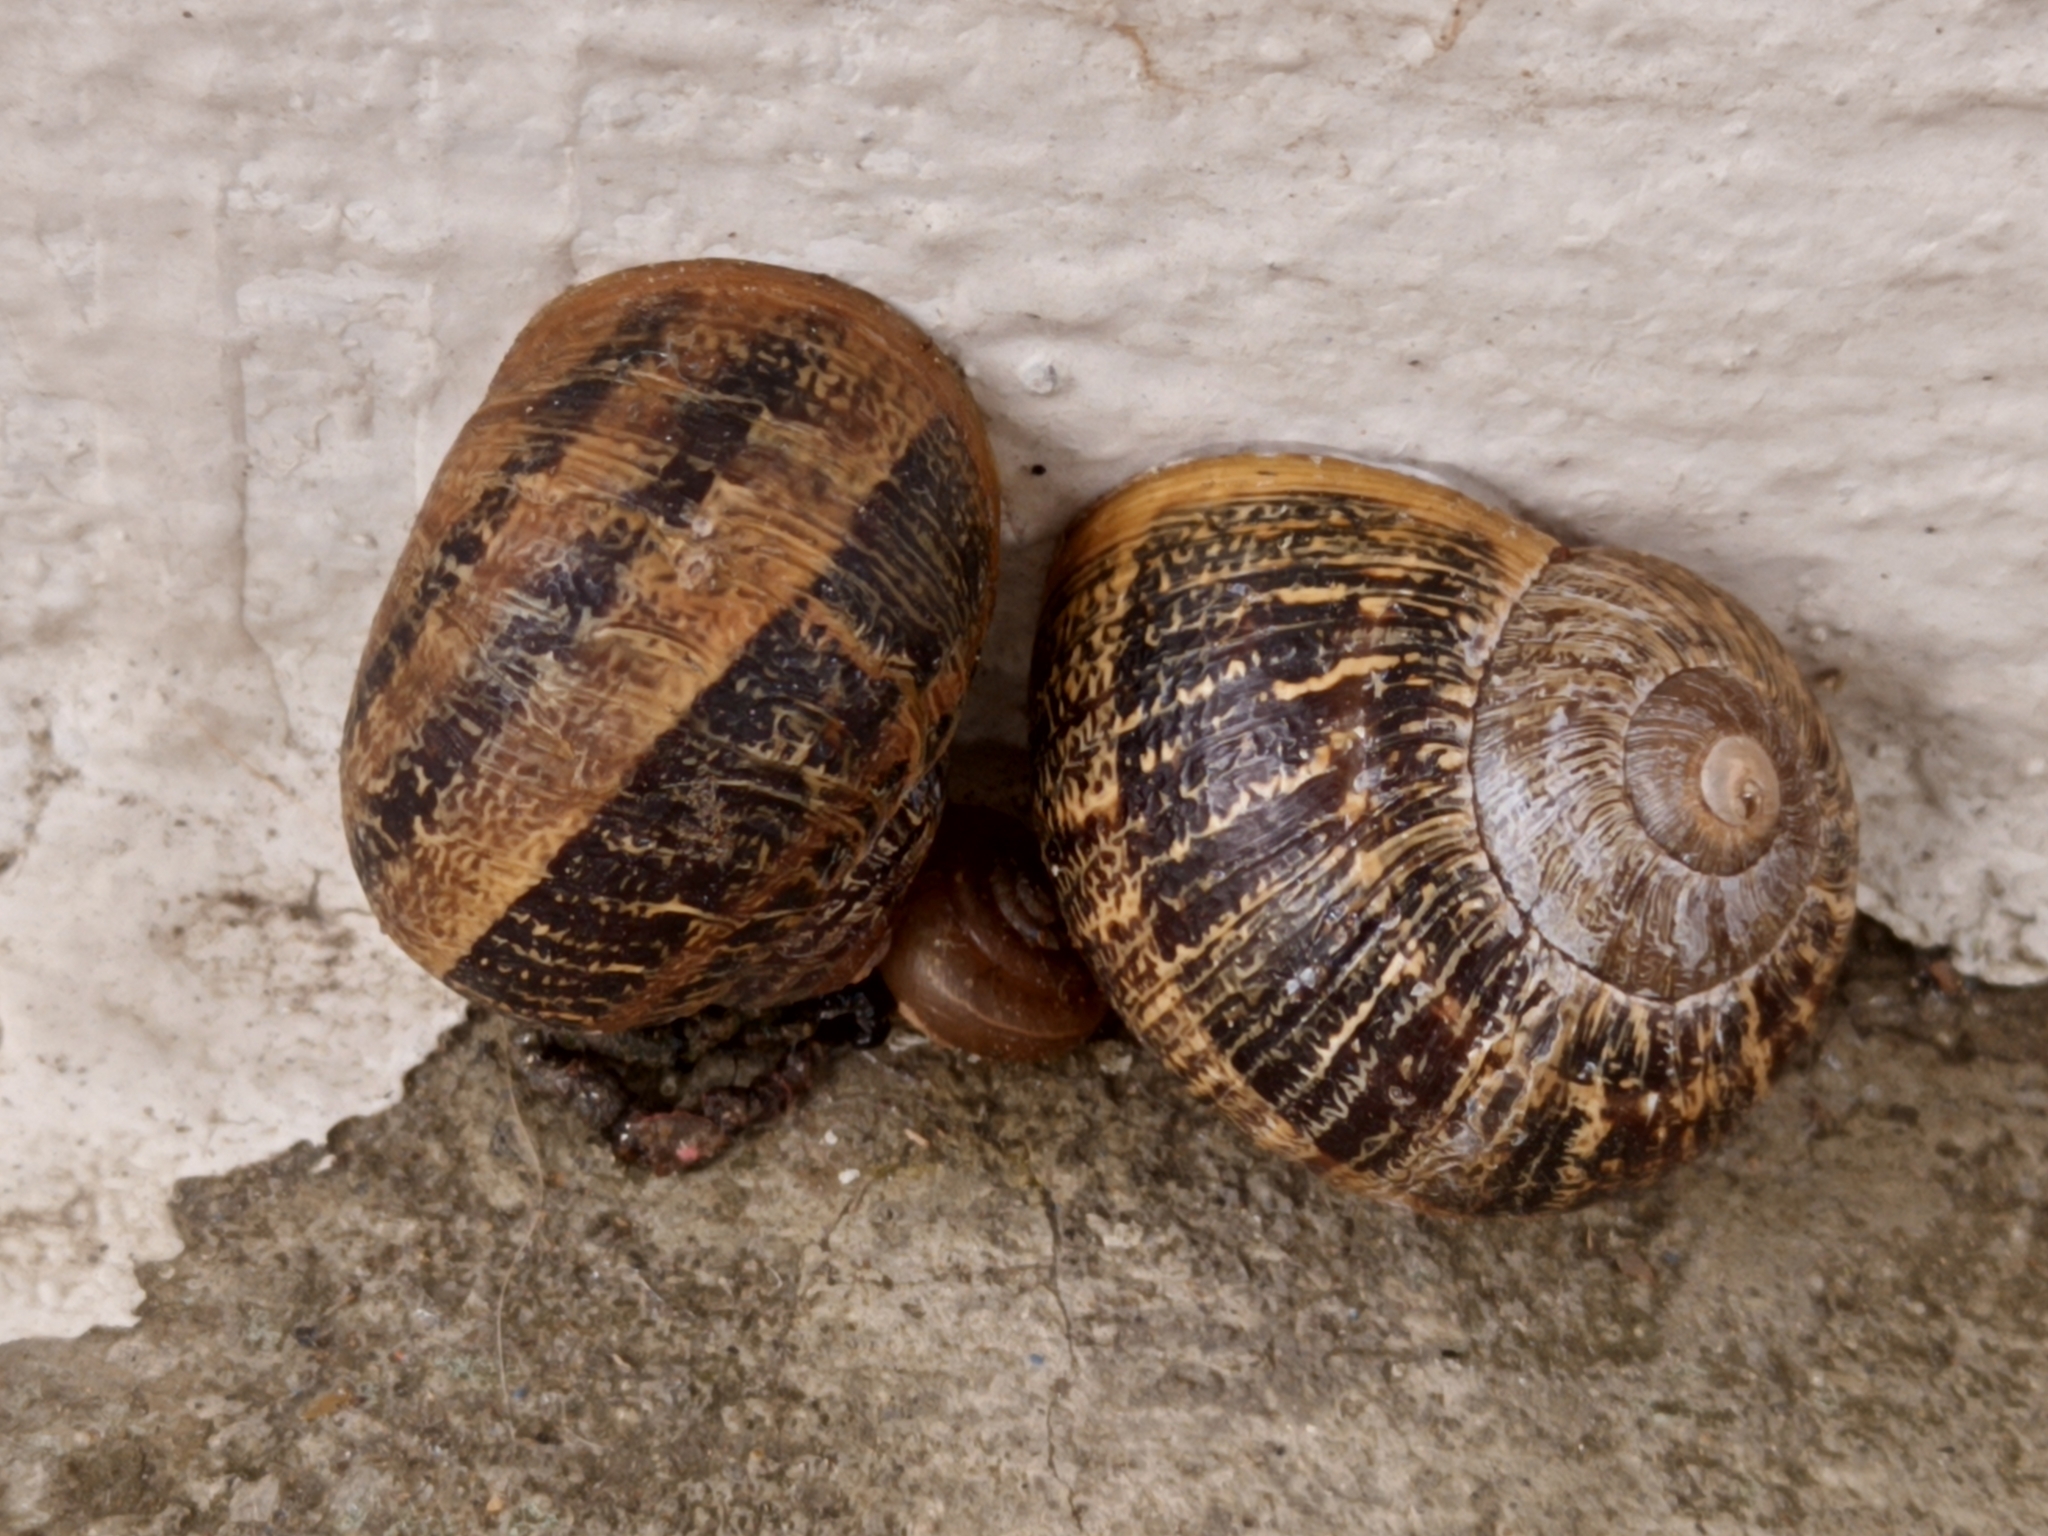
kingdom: Animalia
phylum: Mollusca
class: Gastropoda
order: Stylommatophora
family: Helicidae
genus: Cornu
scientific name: Cornu aspersum
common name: Brown garden snail
